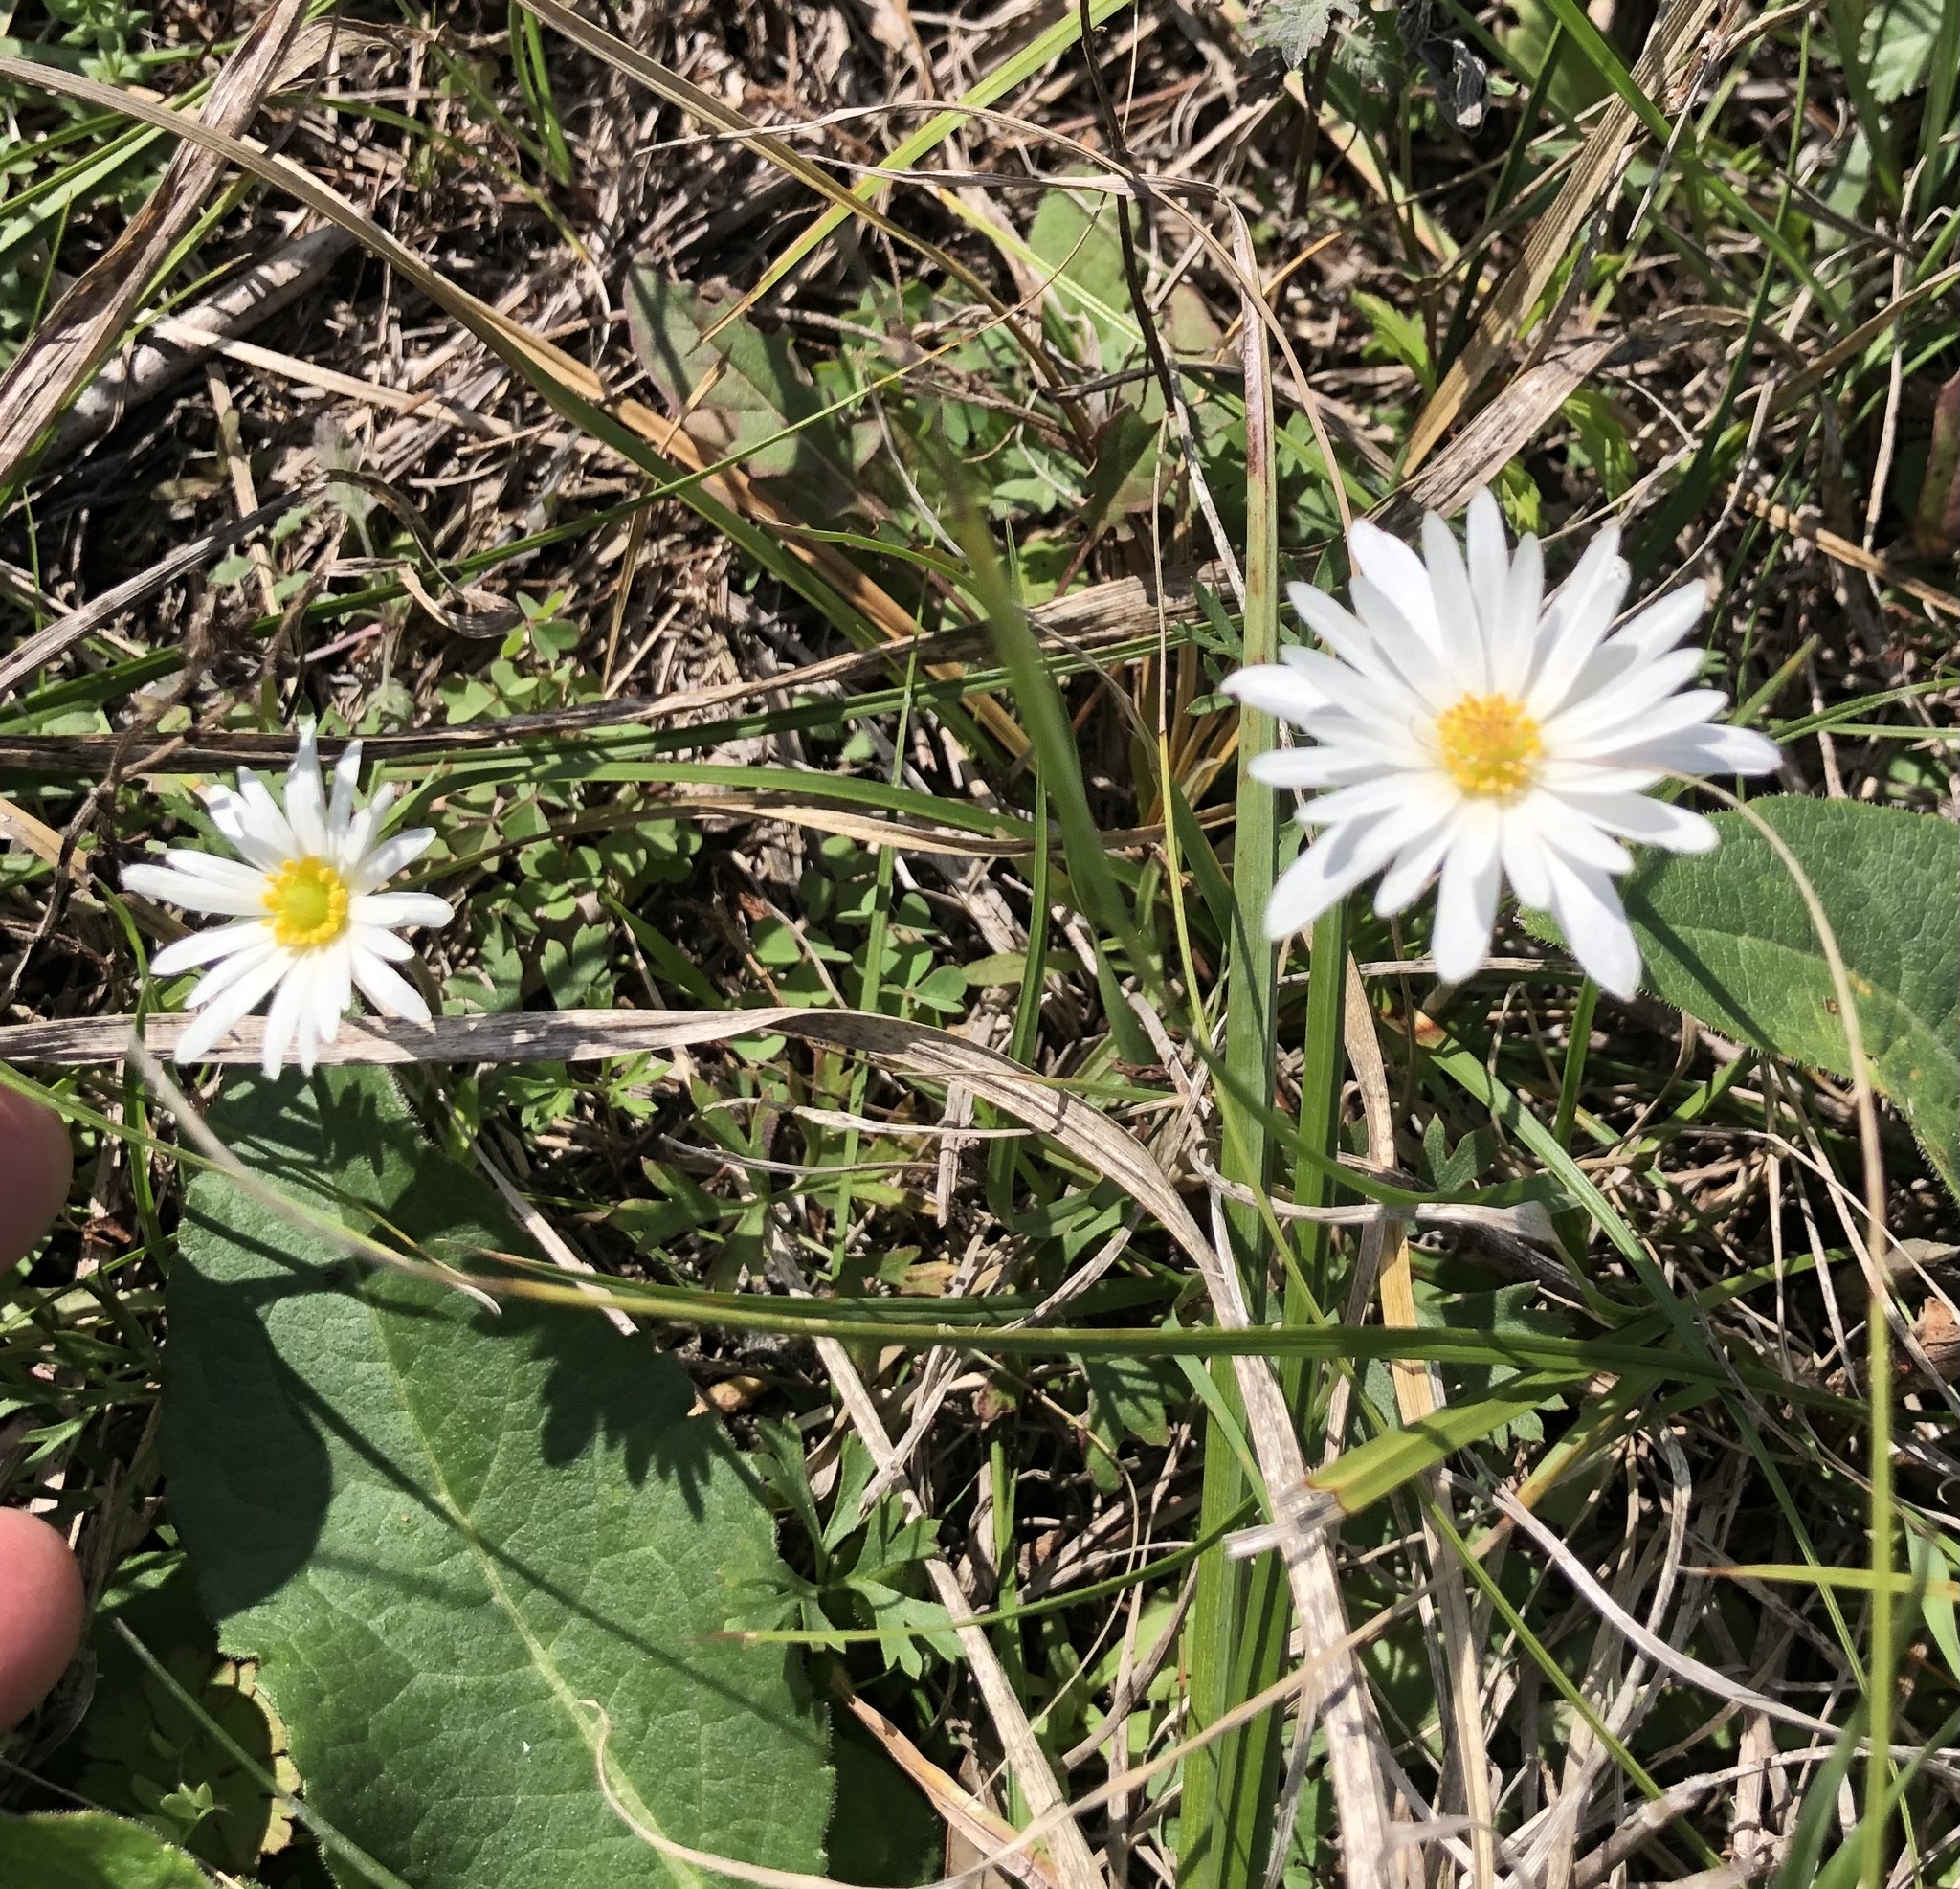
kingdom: Plantae
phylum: Tracheophyta
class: Magnoliopsida
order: Ranunculales
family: Ranunculaceae
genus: Anemone
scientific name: Anemone caroliniana
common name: Carolina anemone
